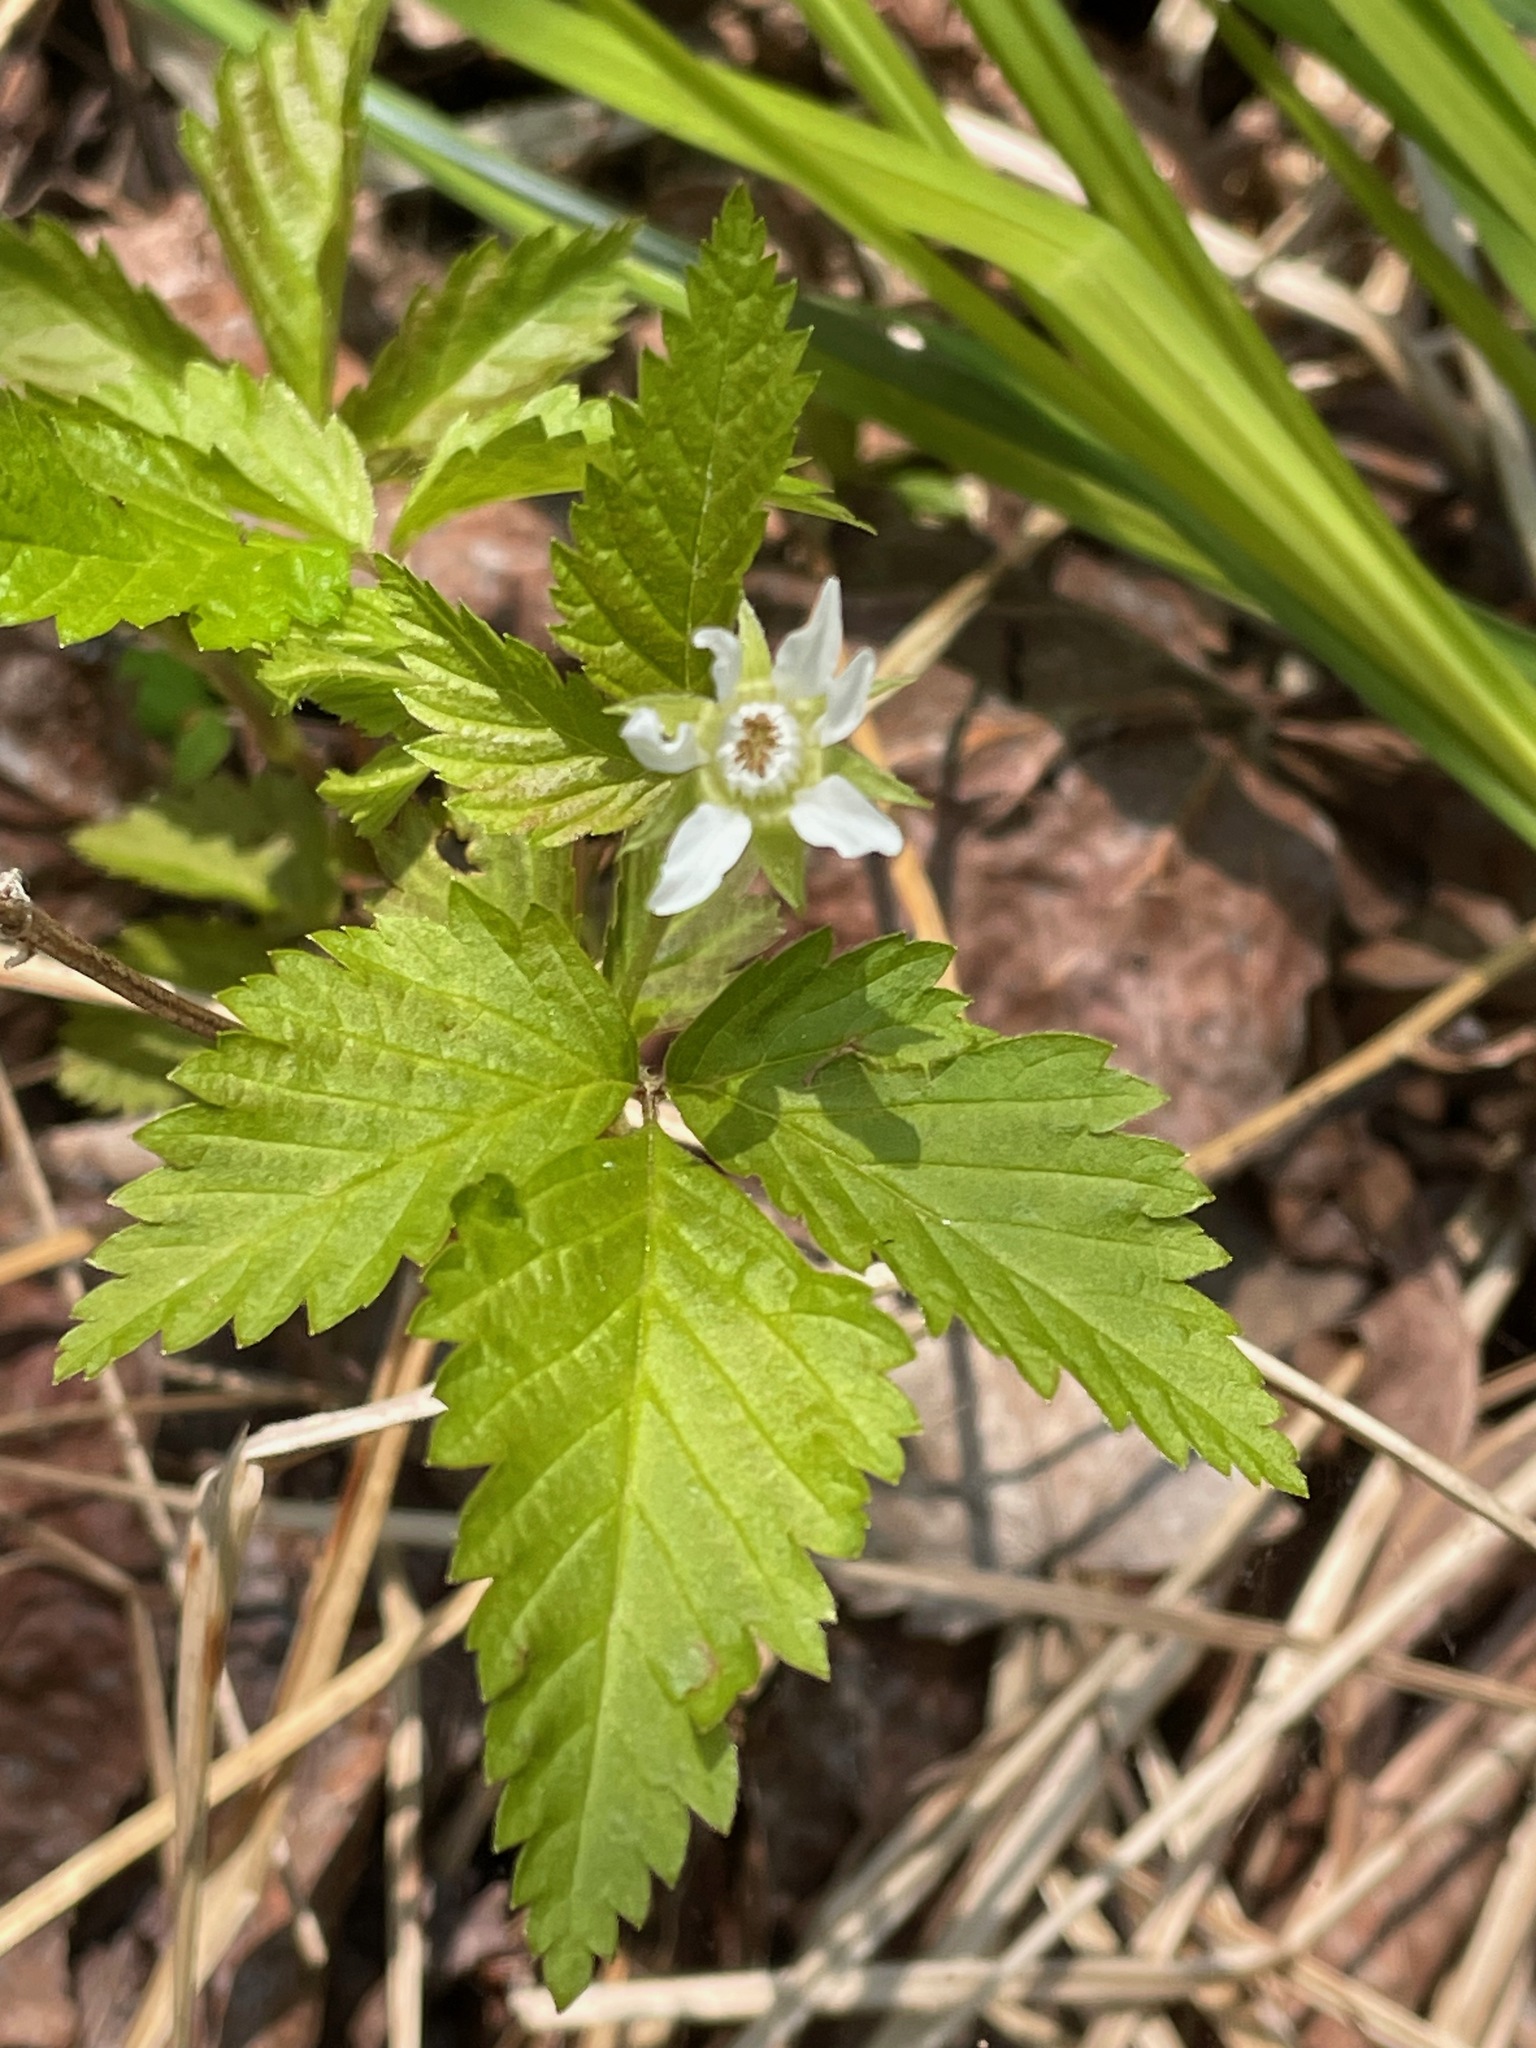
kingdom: Plantae
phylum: Tracheophyta
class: Magnoliopsida
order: Rosales
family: Rosaceae
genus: Rubus
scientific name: Rubus pubescens
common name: Dwarf raspberry
